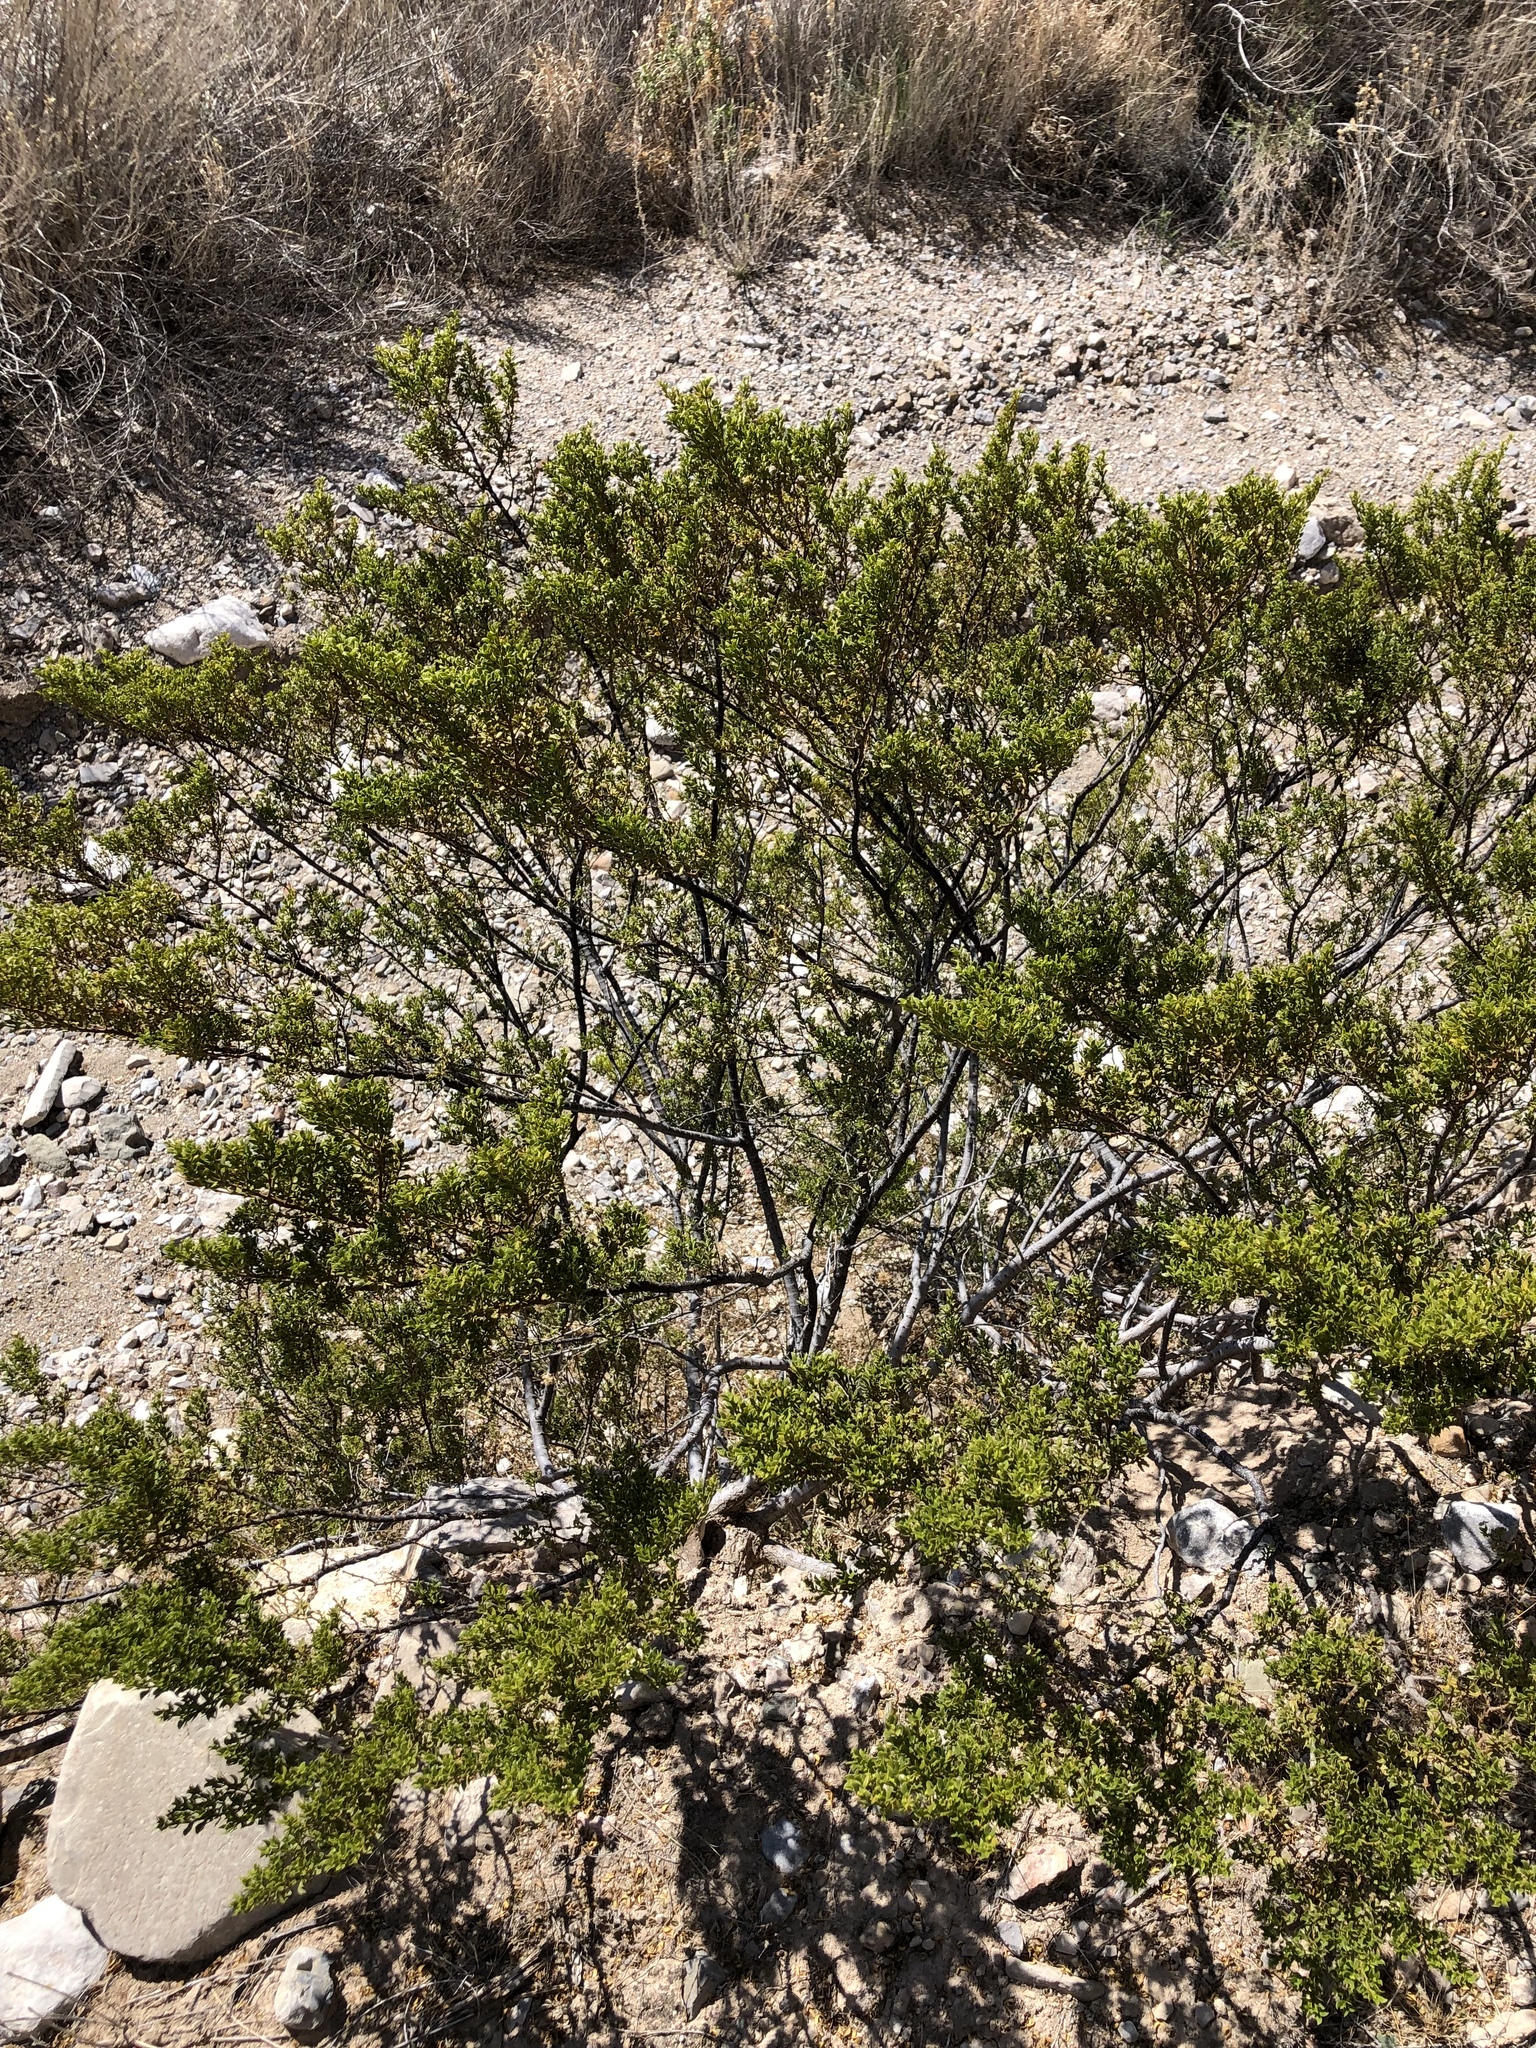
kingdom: Plantae
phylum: Tracheophyta
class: Magnoliopsida
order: Zygophyllales
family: Zygophyllaceae
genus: Larrea
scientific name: Larrea tridentata
